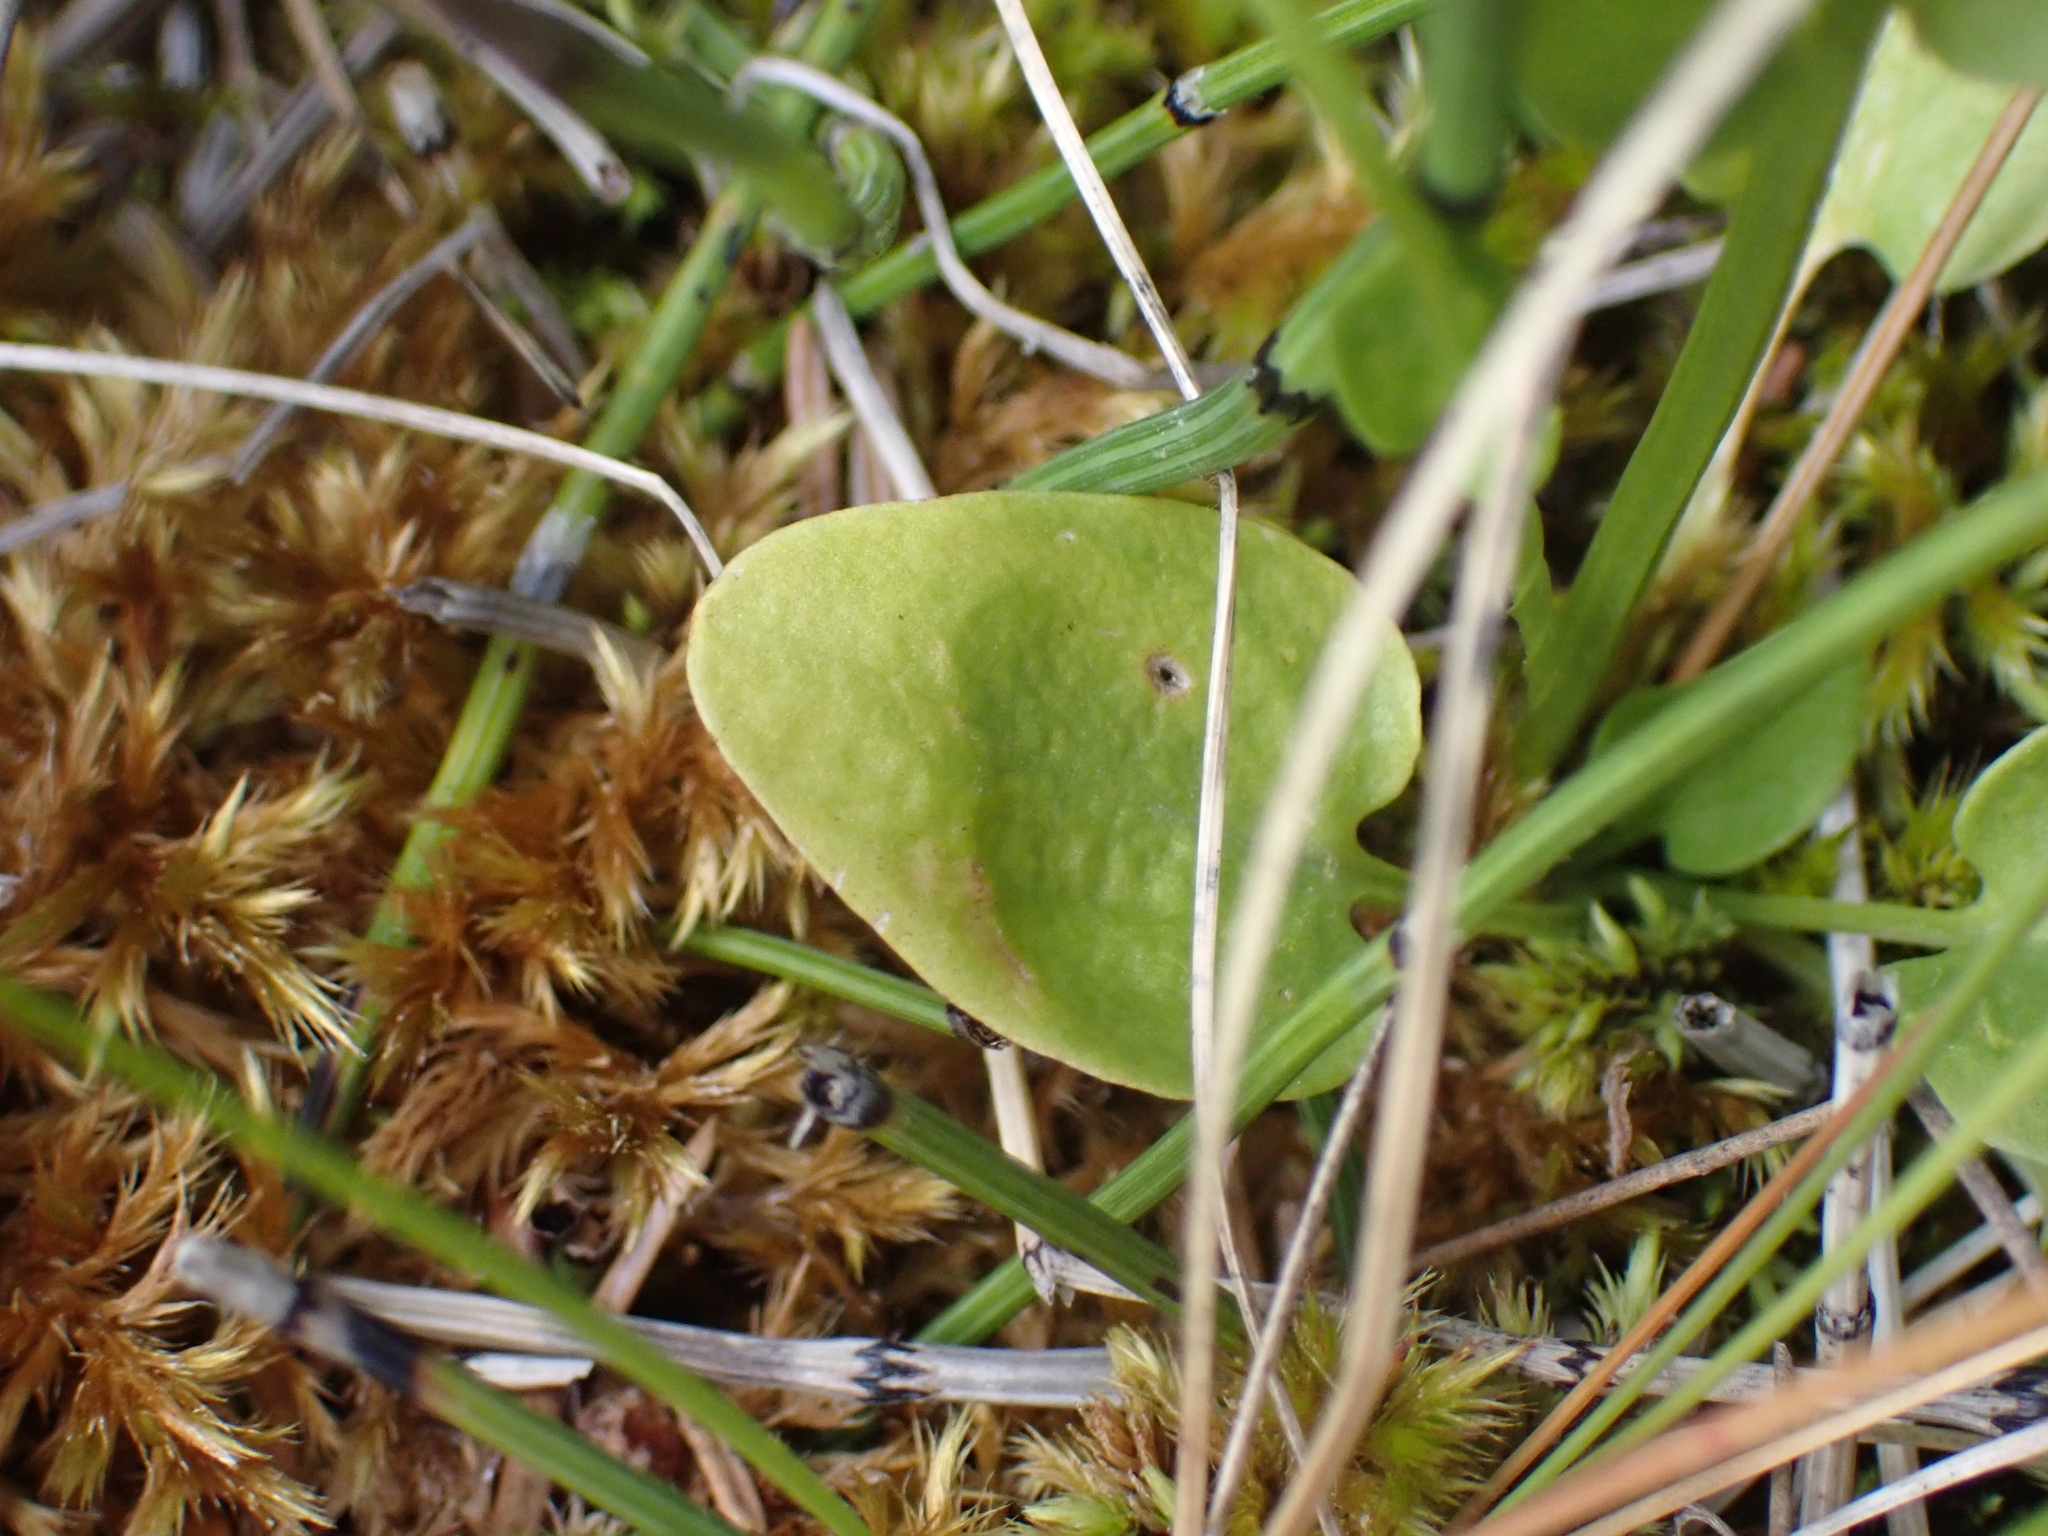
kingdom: Plantae
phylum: Tracheophyta
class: Magnoliopsida
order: Celastrales
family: Parnassiaceae
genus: Parnassia
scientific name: Parnassia palustris
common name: Grass-of-parnassus
